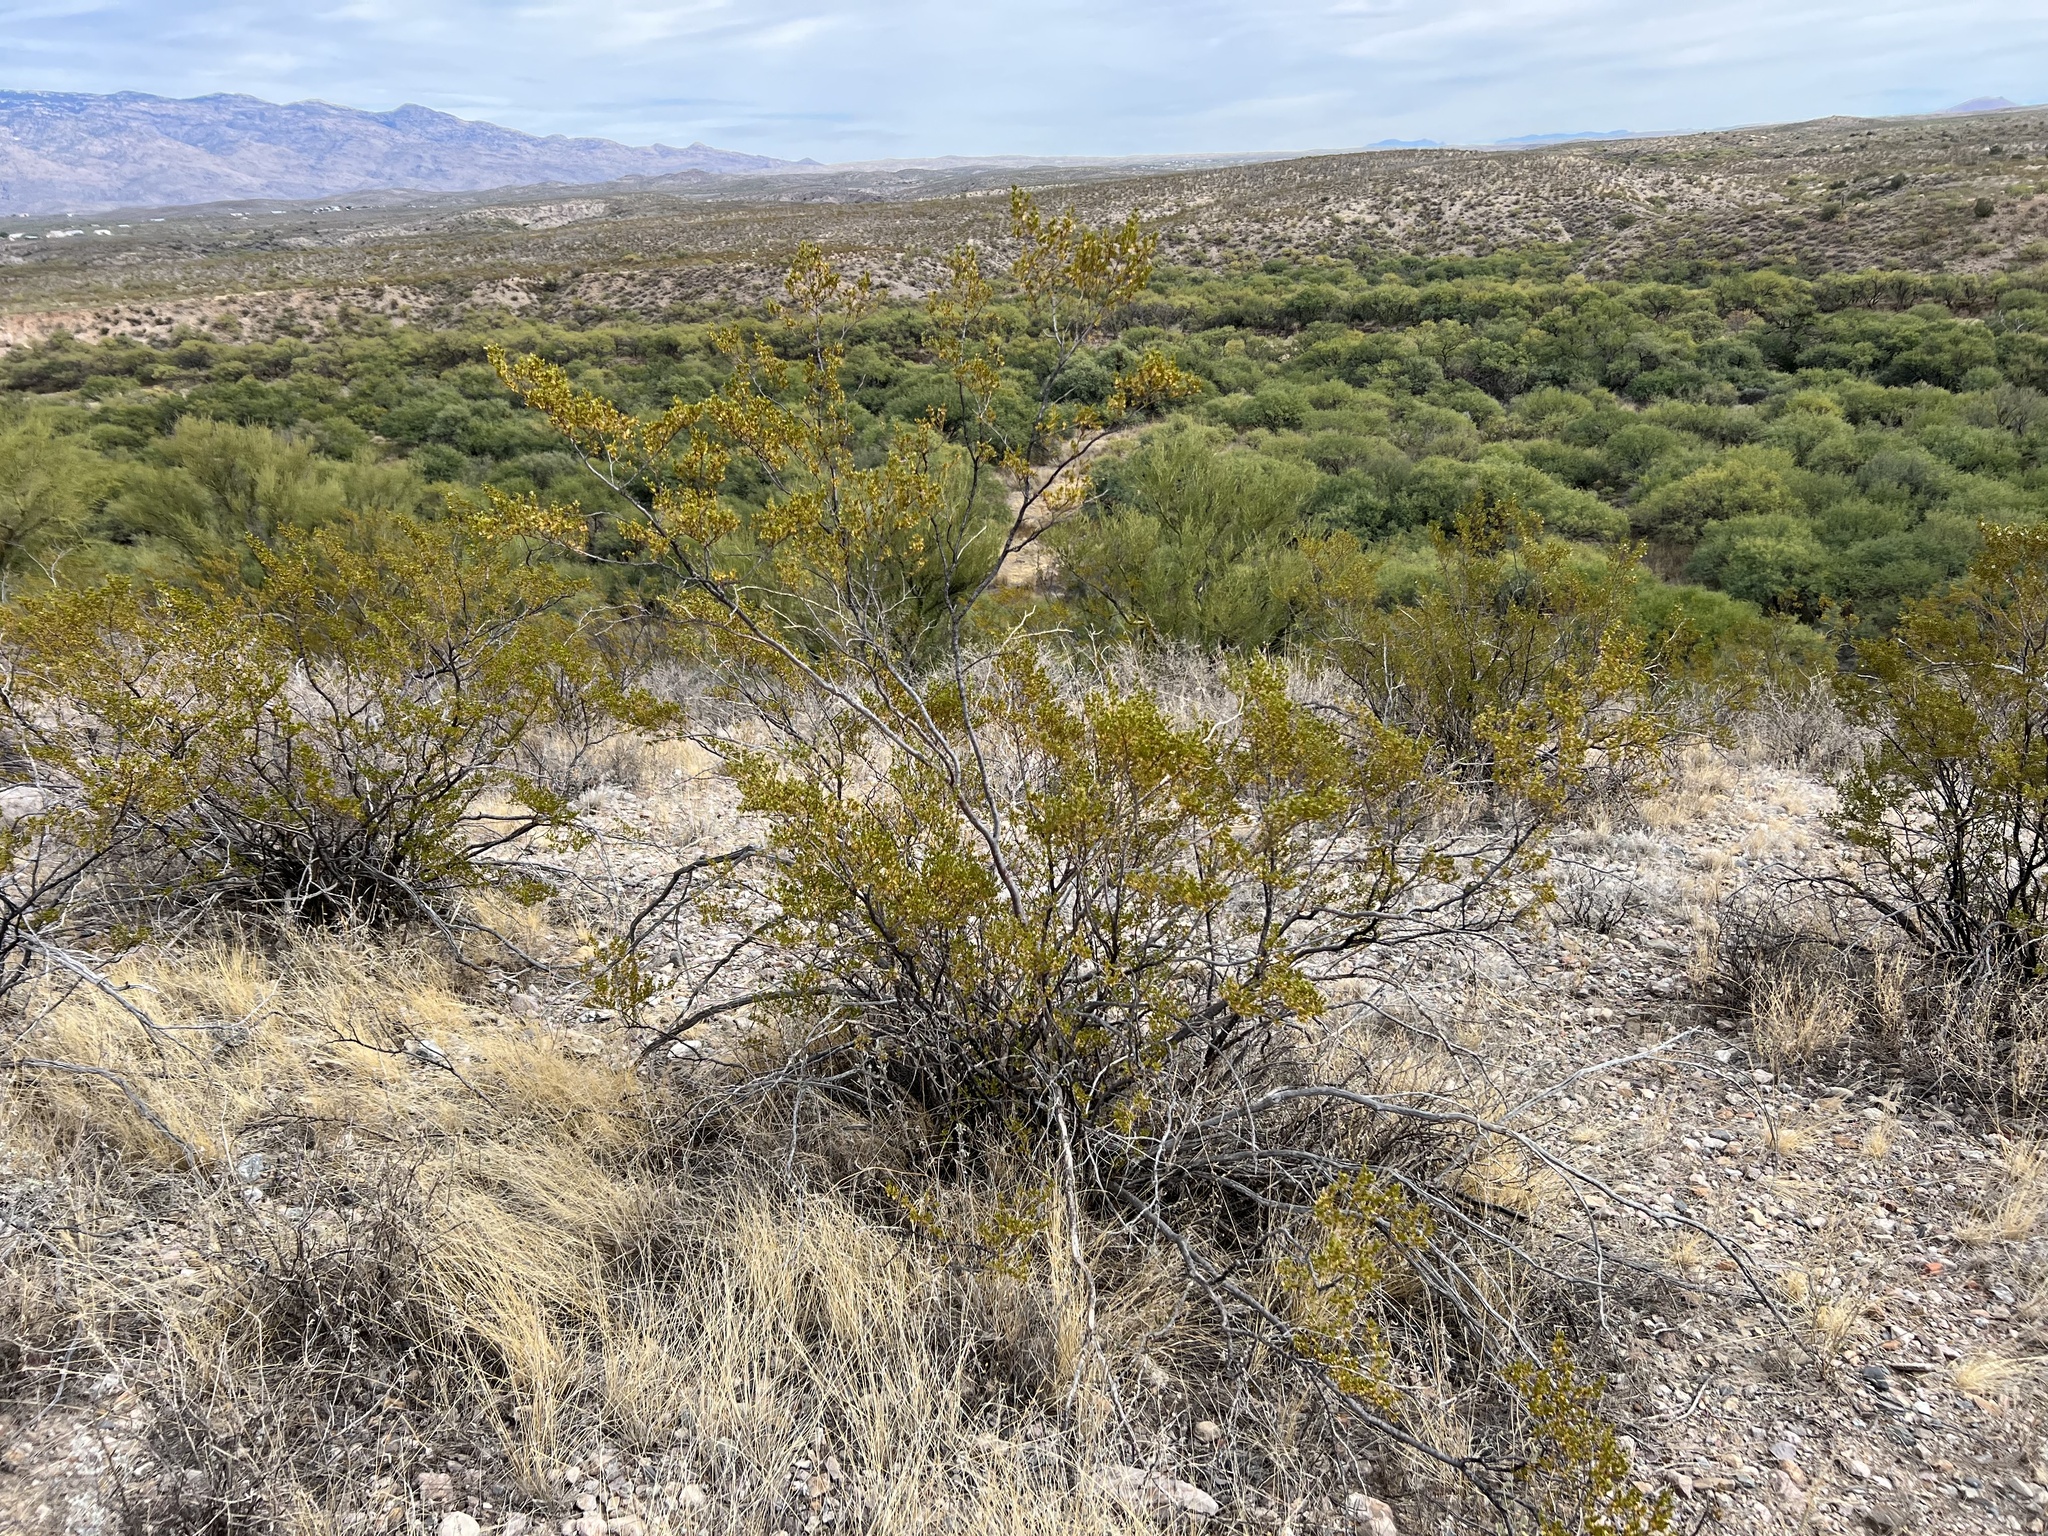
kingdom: Plantae
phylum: Tracheophyta
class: Magnoliopsida
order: Zygophyllales
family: Zygophyllaceae
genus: Larrea
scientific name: Larrea tridentata
